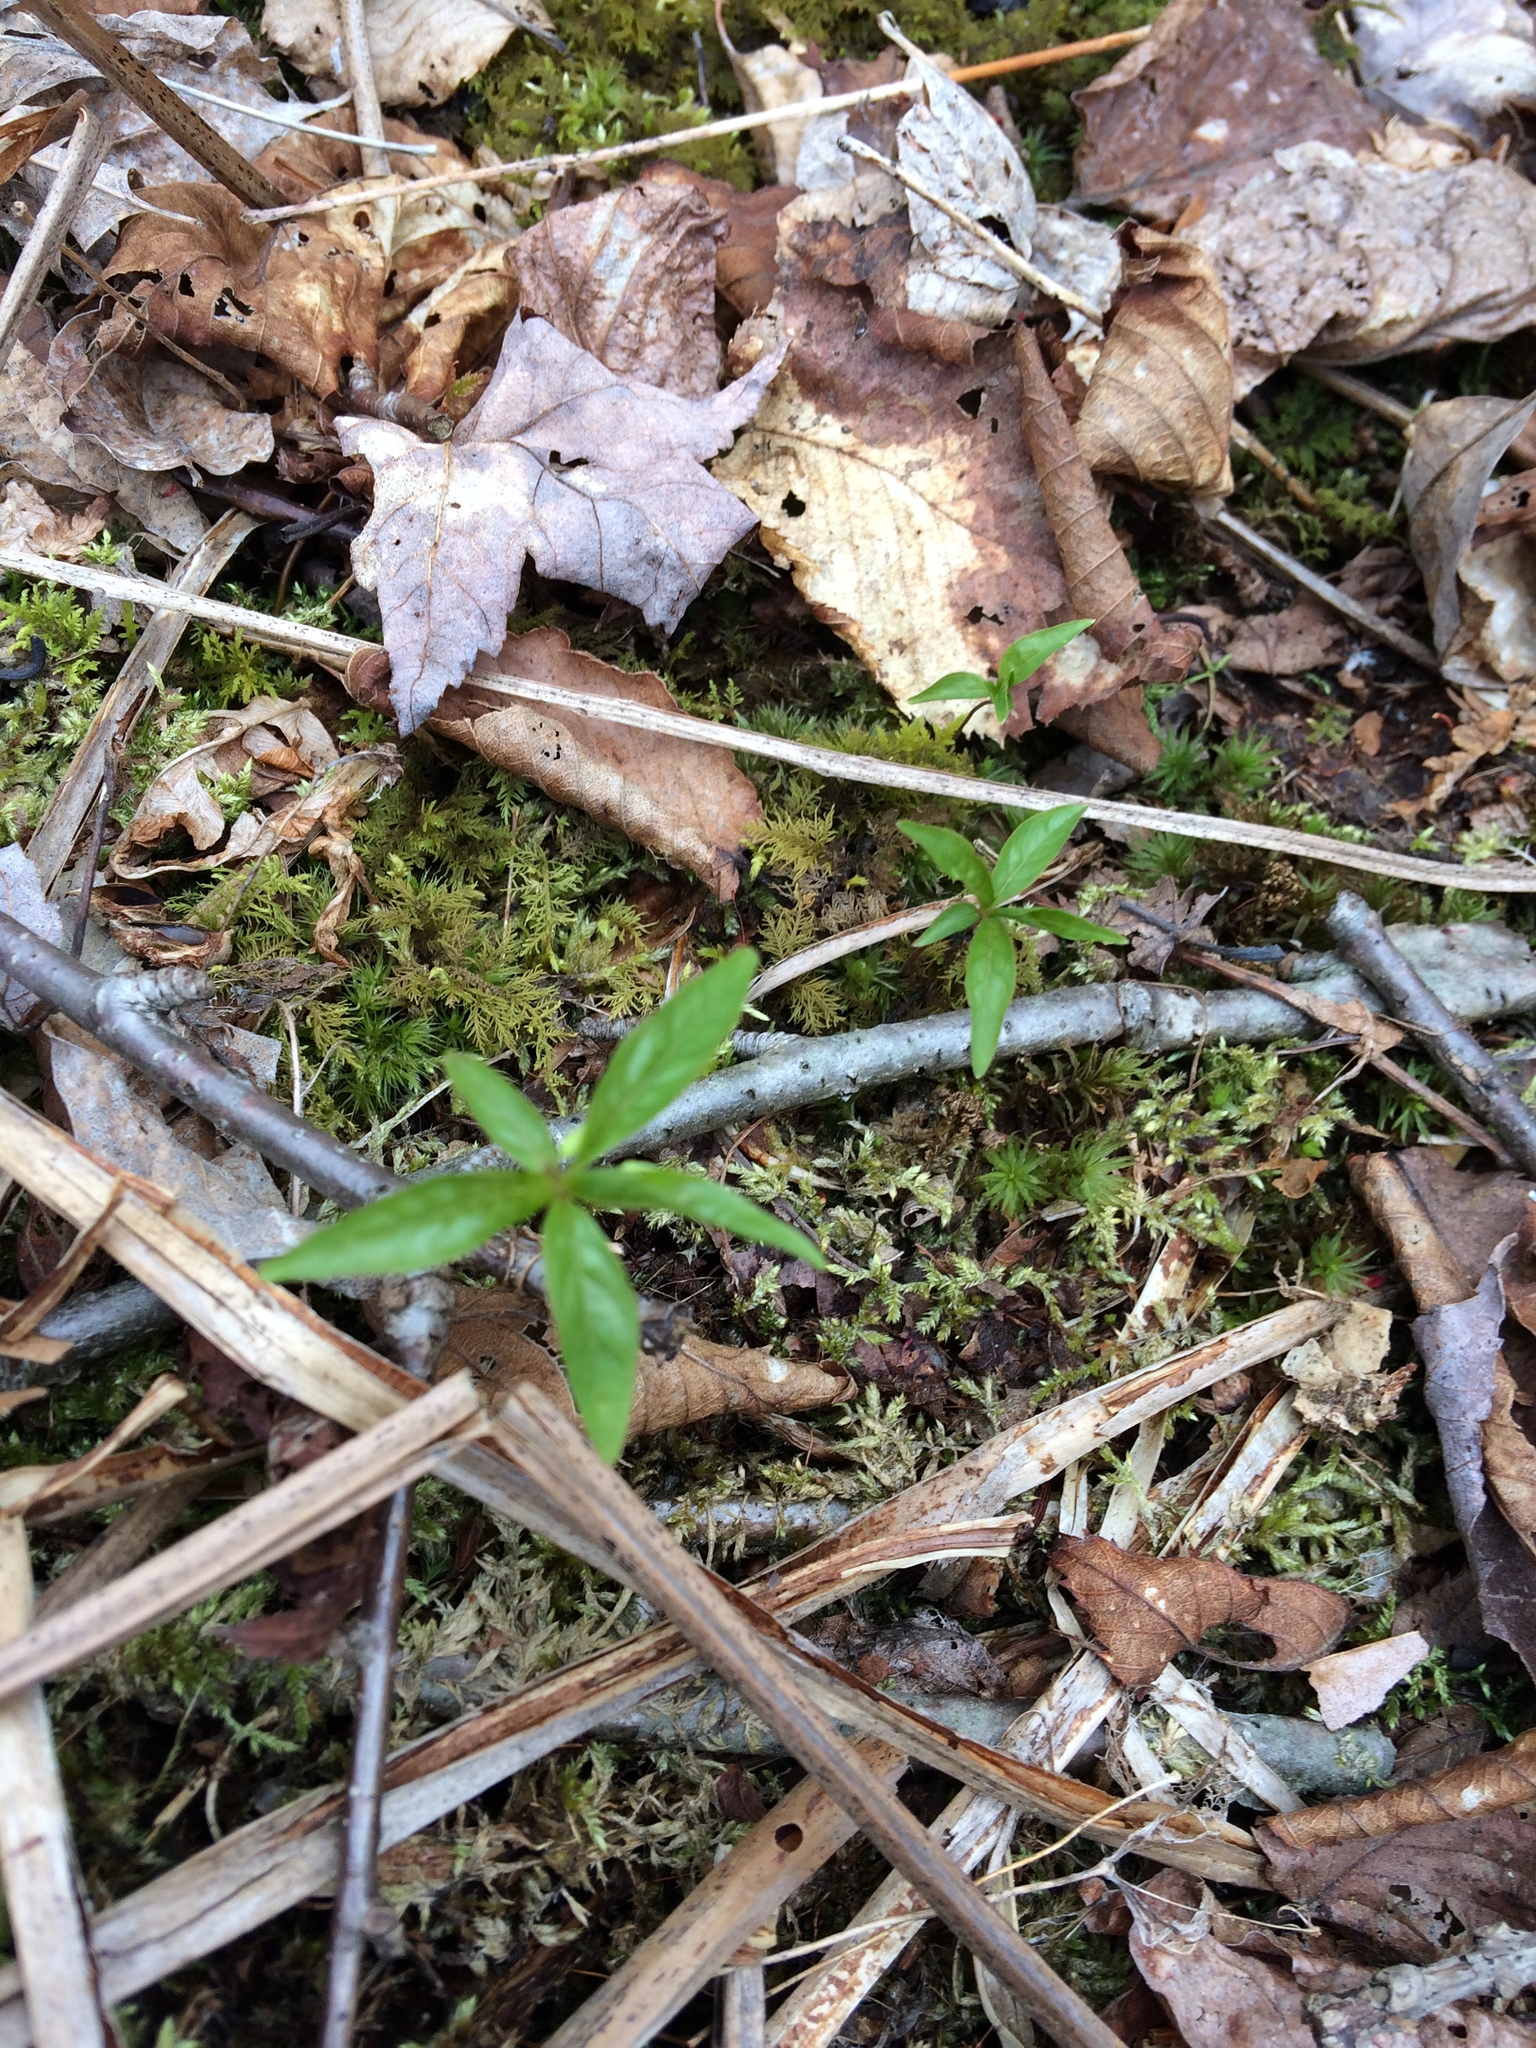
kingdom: Plantae
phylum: Tracheophyta
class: Magnoliopsida
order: Ericales
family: Primulaceae
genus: Lysimachia
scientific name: Lysimachia borealis
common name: American starflower
